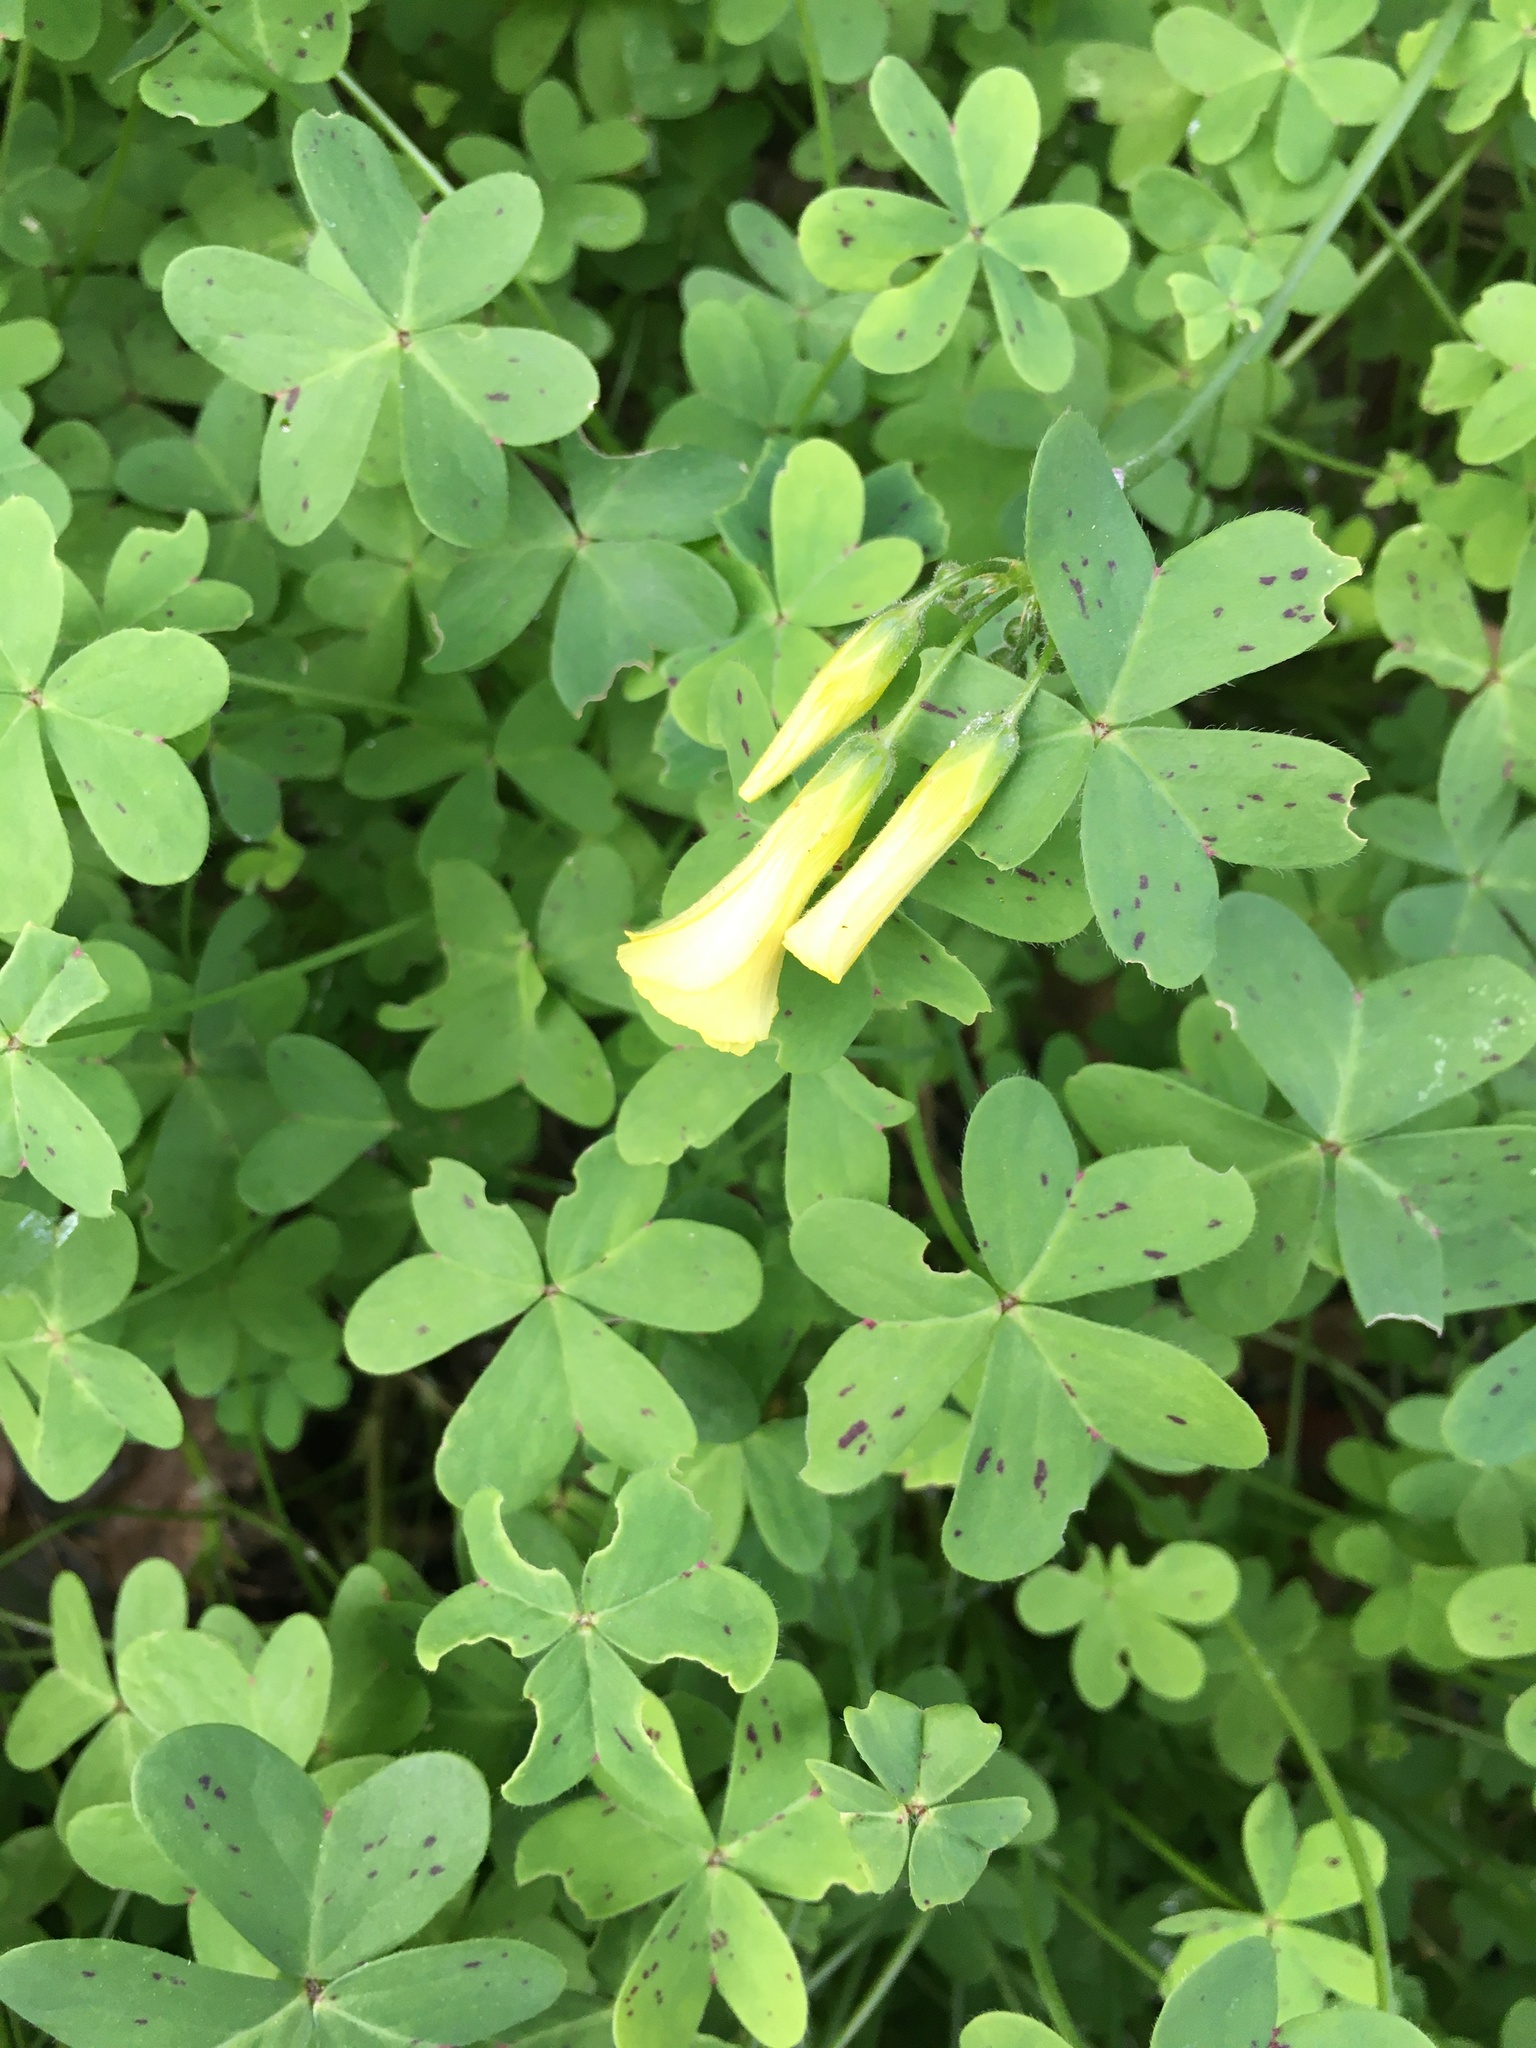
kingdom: Plantae
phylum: Tracheophyta
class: Magnoliopsida
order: Oxalidales
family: Oxalidaceae
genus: Oxalis
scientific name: Oxalis pes-caprae
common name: Bermuda-buttercup
